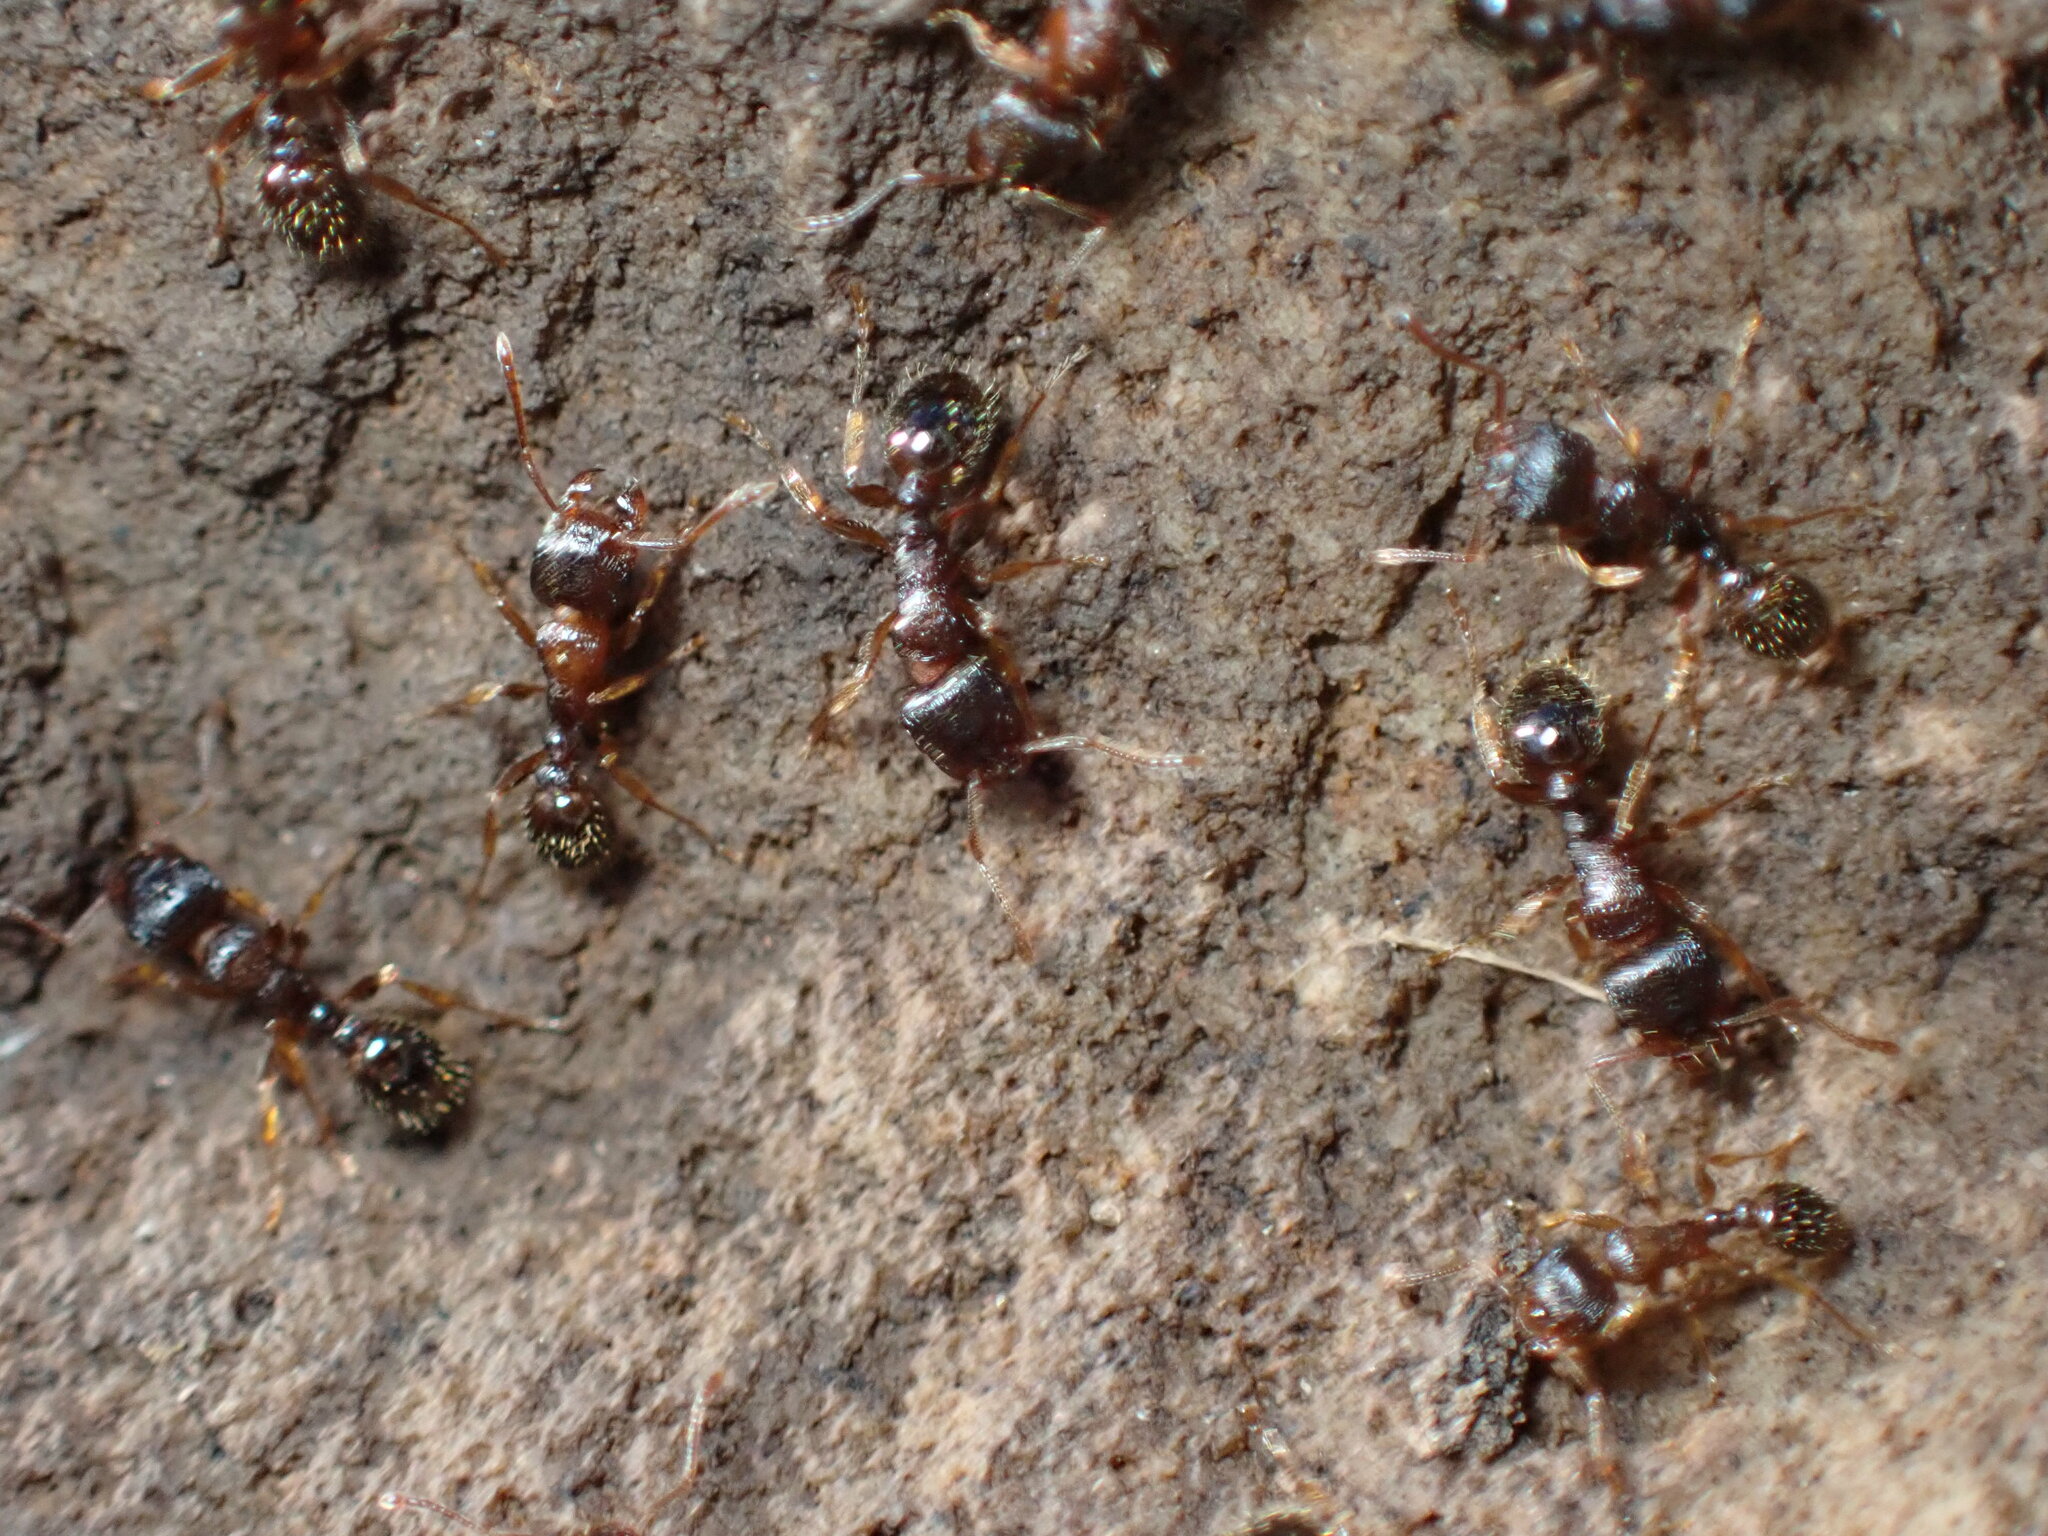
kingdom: Animalia
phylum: Arthropoda
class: Insecta
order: Hymenoptera
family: Formicidae
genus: Tetramorium
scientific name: Tetramorium immigrans
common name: Pavement ant
